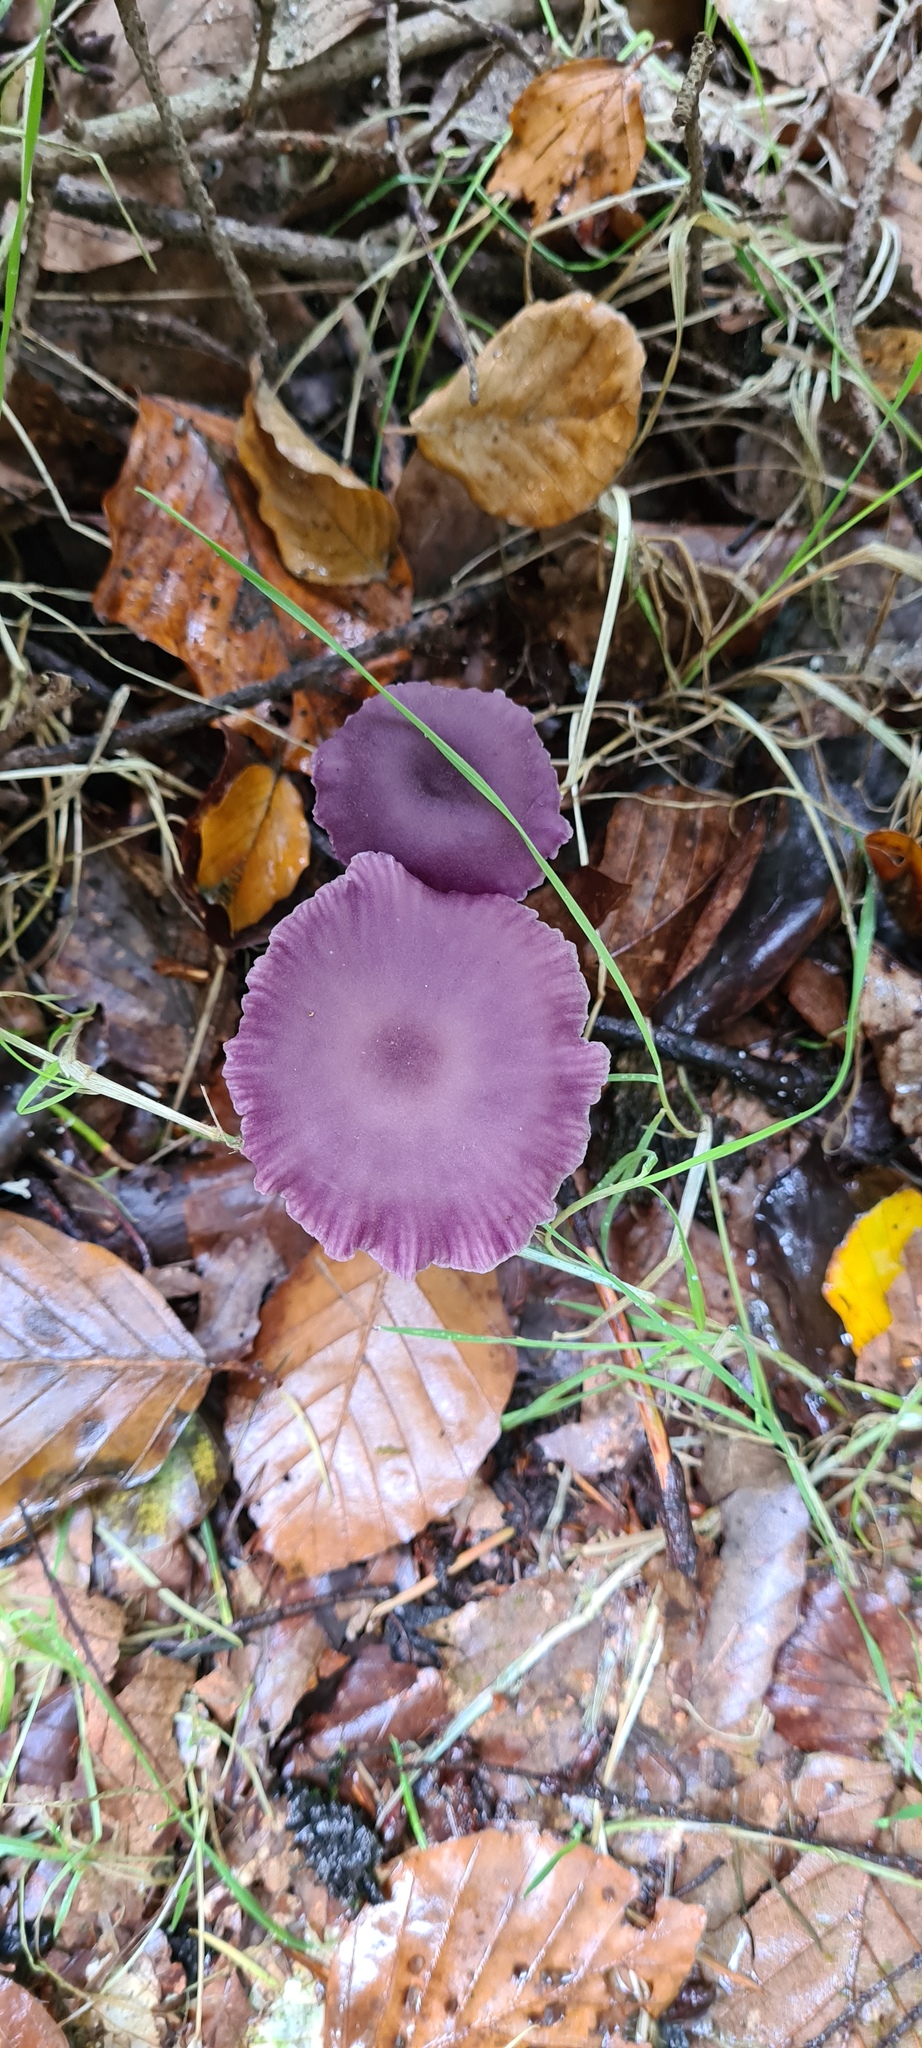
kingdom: Fungi
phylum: Basidiomycota
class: Agaricomycetes
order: Agaricales
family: Hydnangiaceae
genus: Laccaria
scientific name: Laccaria amethystina
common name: Amethyst deceiver
